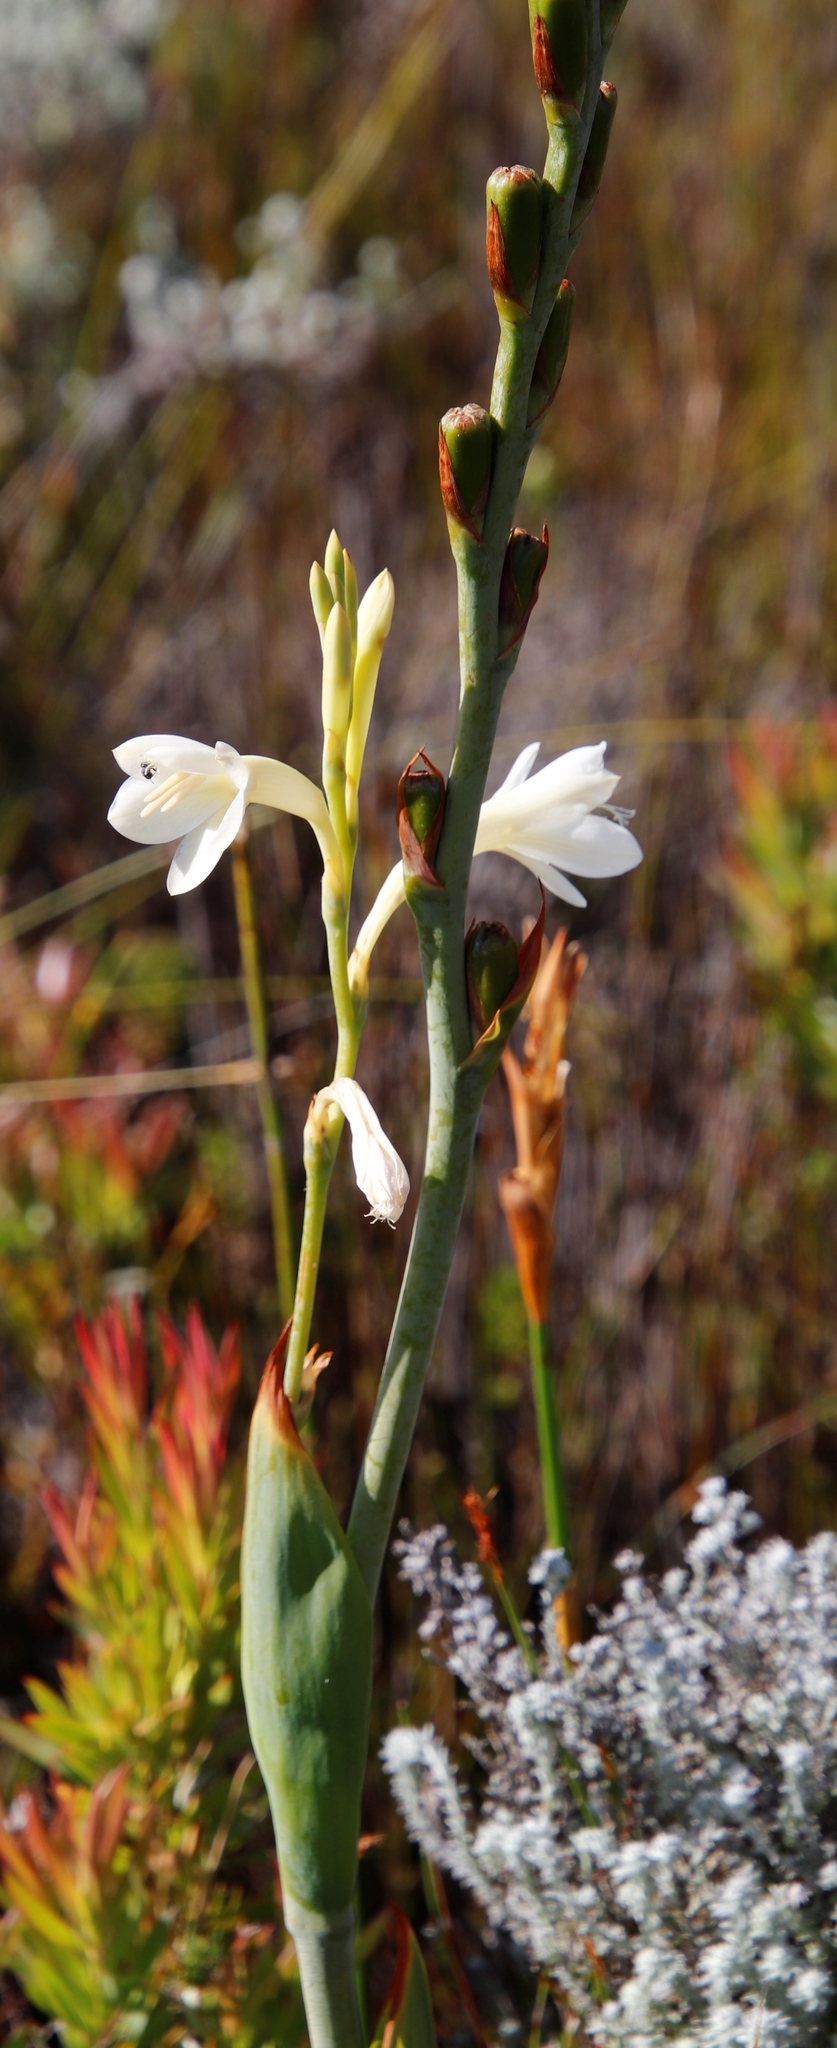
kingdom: Plantae
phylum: Tracheophyta
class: Liliopsida
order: Asparagales
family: Iridaceae
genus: Watsonia
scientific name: Watsonia tabularis
